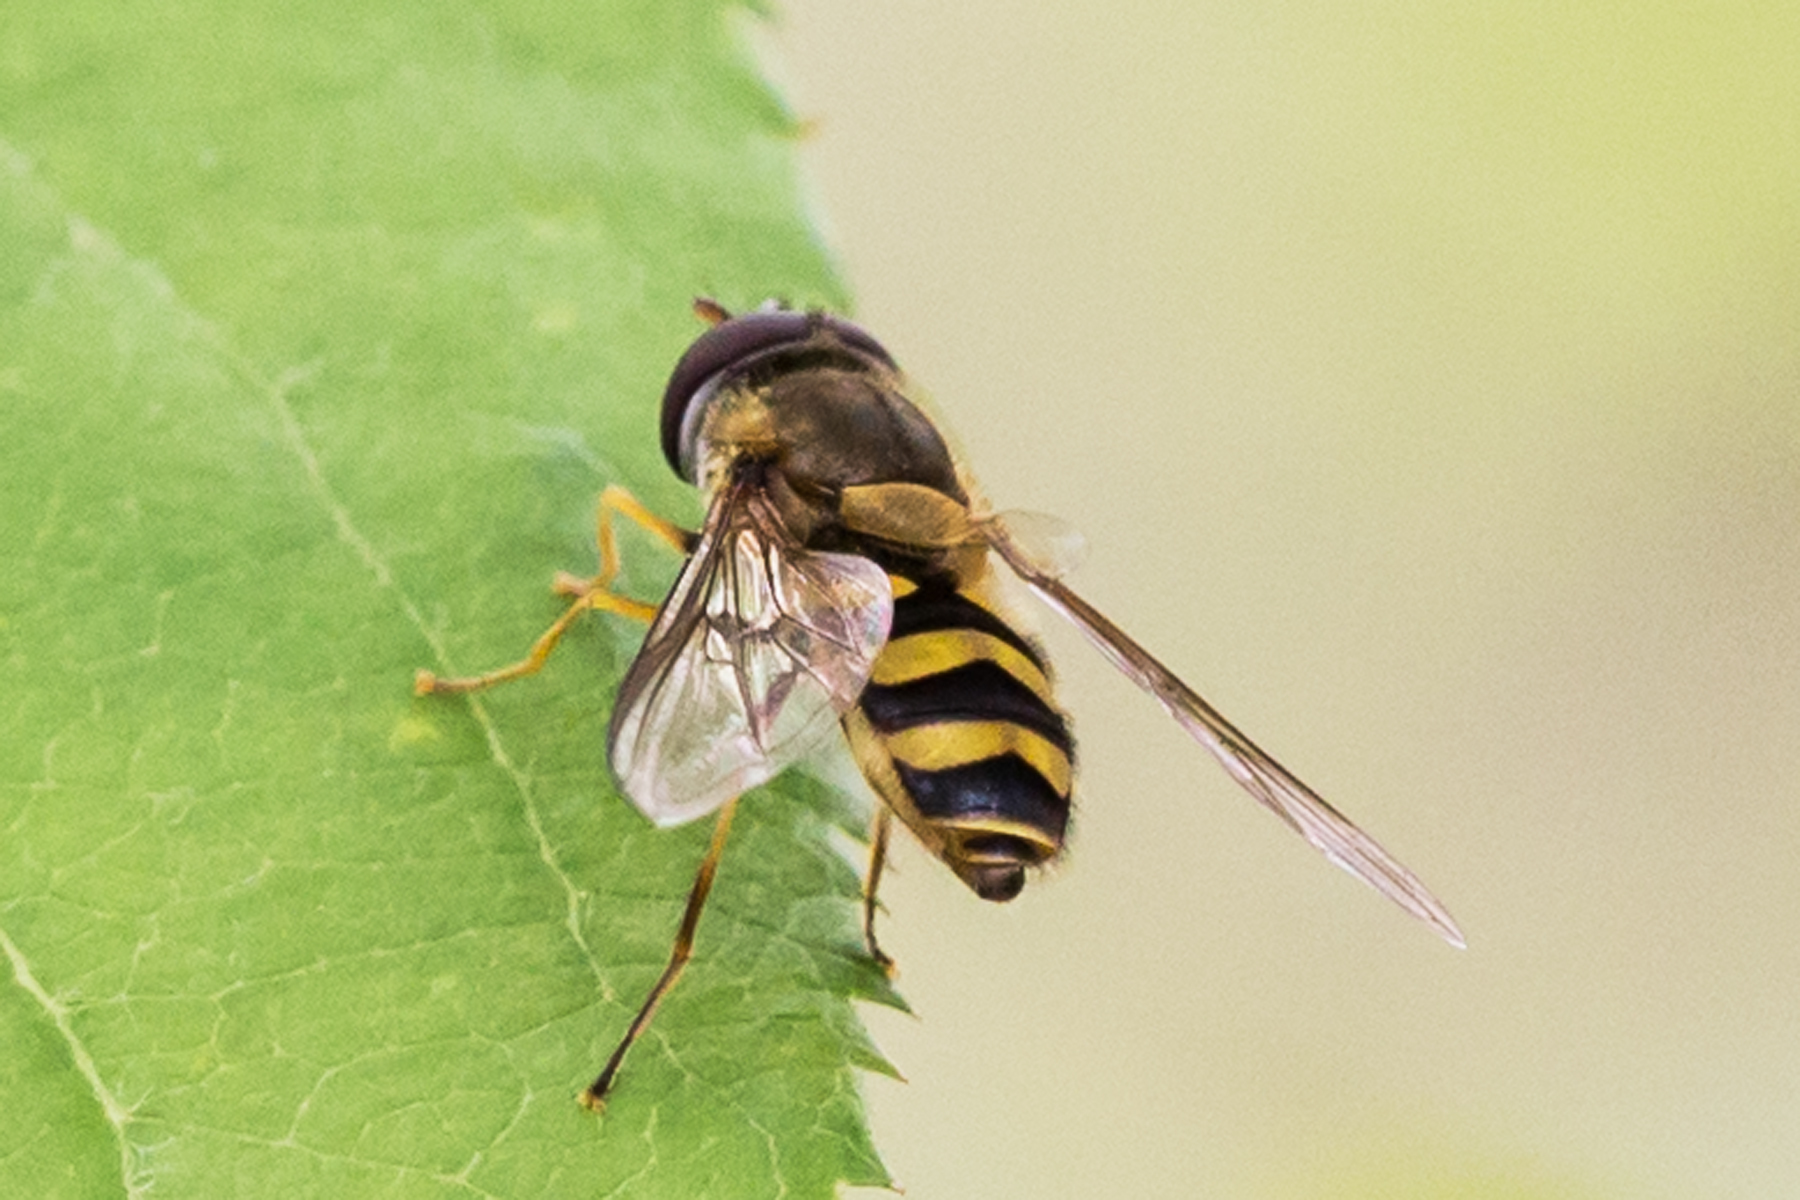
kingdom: Animalia
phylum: Arthropoda
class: Insecta
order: Diptera
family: Syrphidae
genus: Syrphus
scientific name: Syrphus
